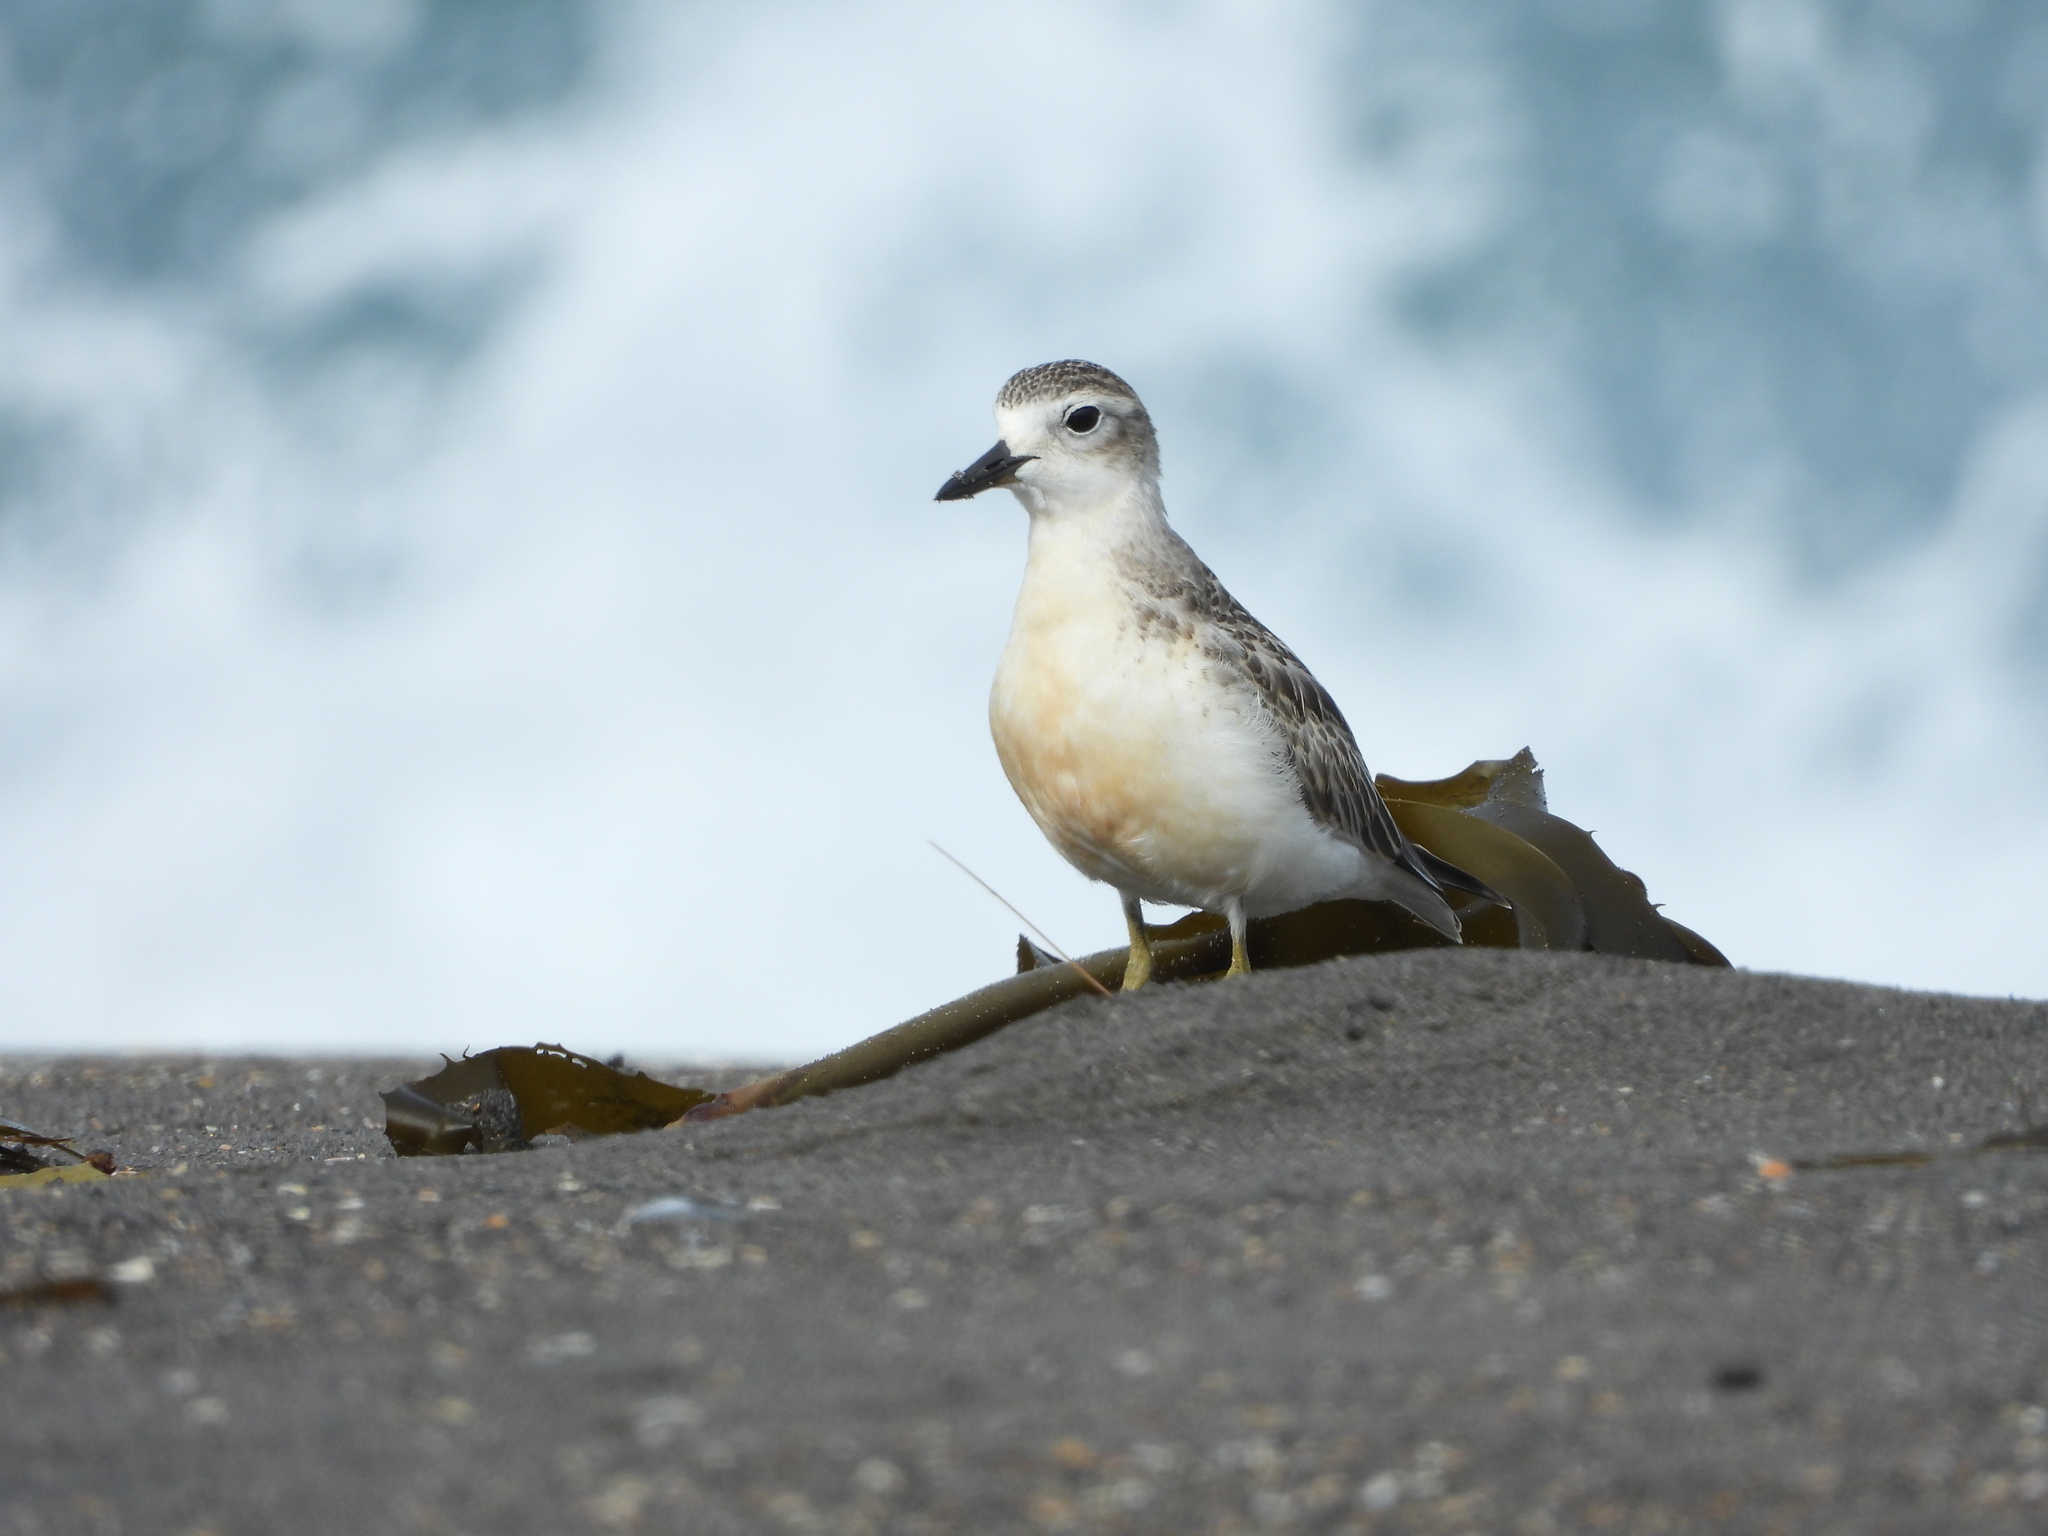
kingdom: Animalia
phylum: Chordata
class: Aves
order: Charadriiformes
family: Charadriidae
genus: Anarhynchus
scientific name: Anarhynchus
